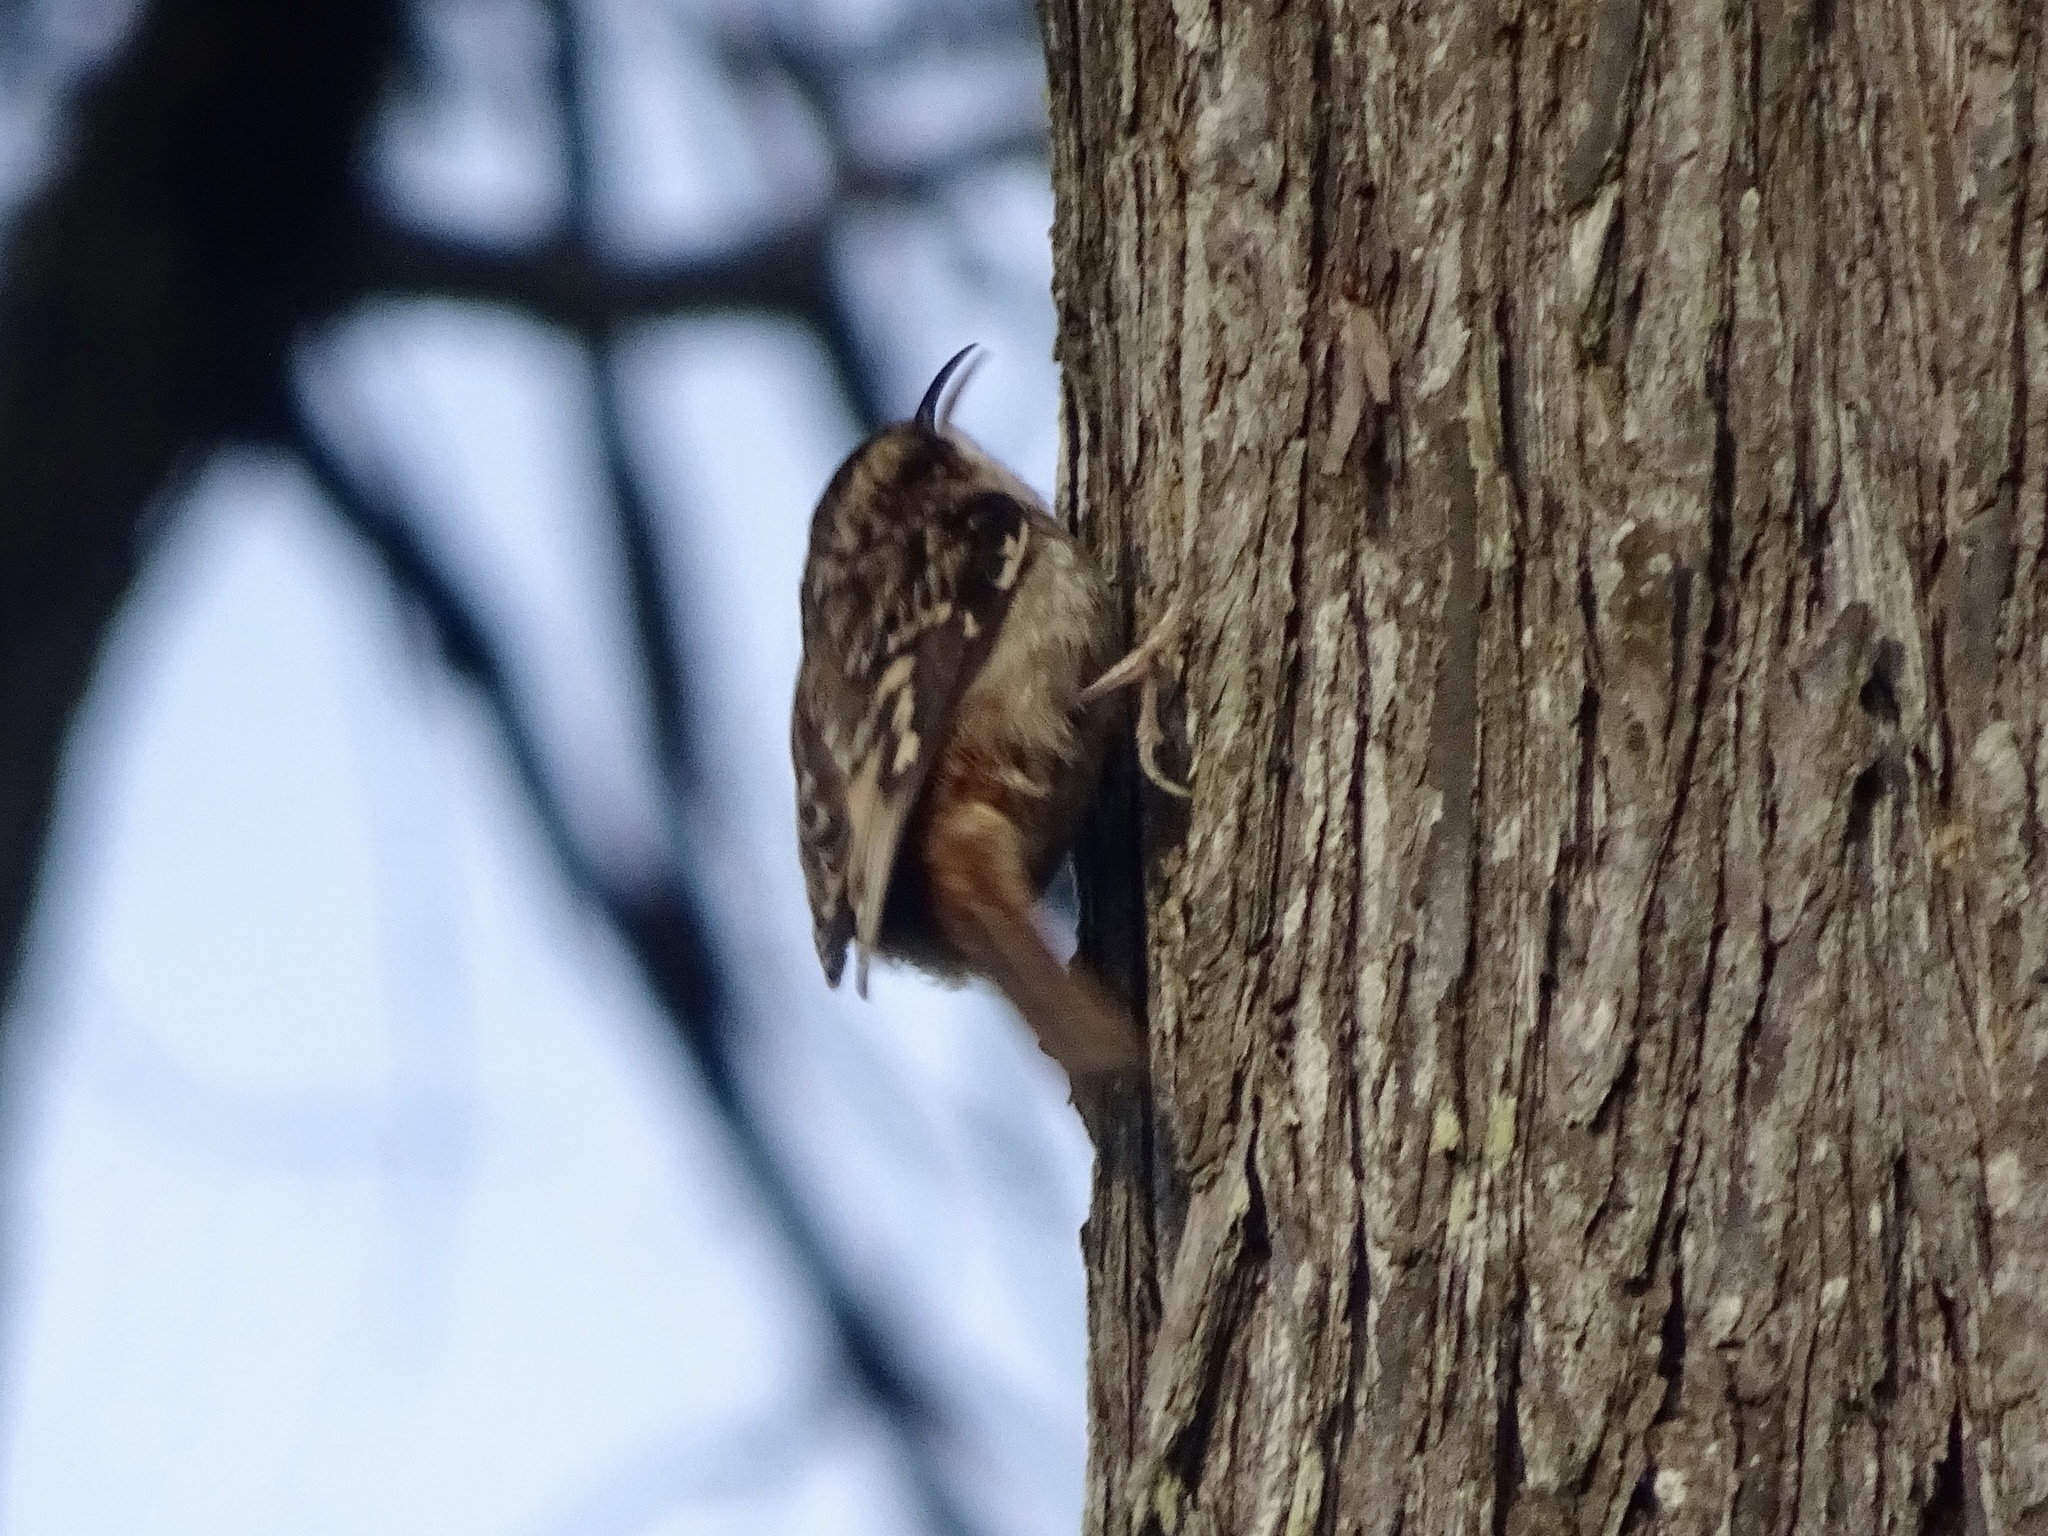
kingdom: Animalia
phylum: Chordata
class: Aves
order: Passeriformes
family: Certhiidae
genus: Certhia
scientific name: Certhia americana
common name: Brown creeper
